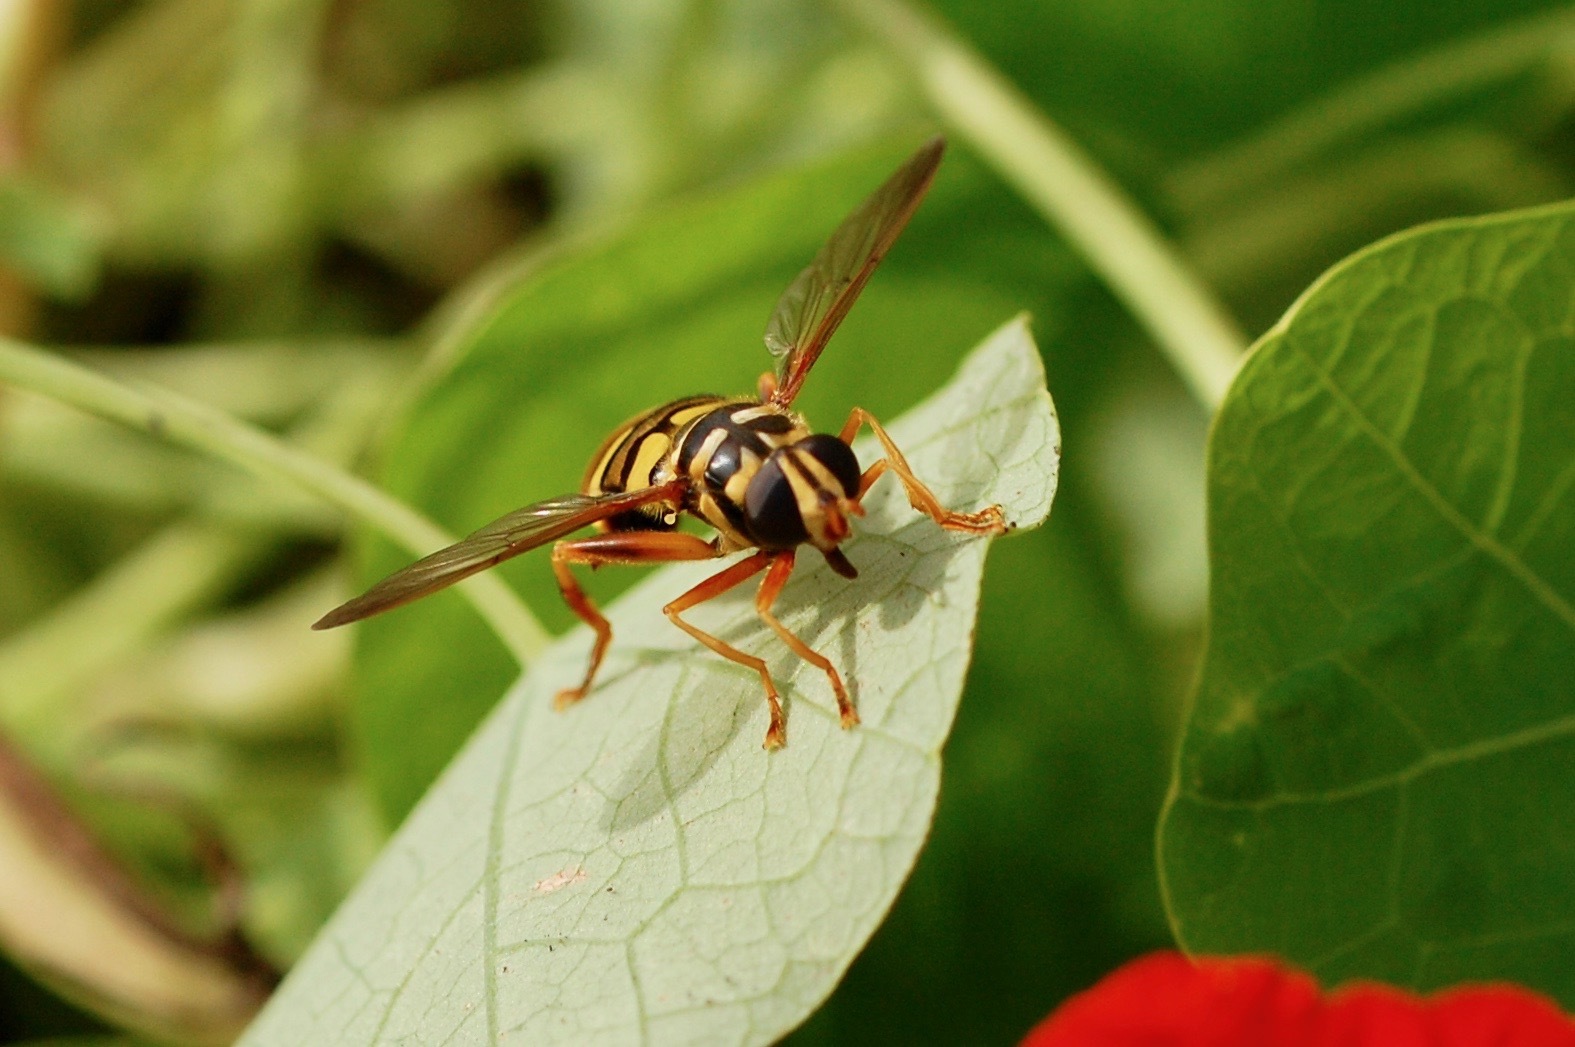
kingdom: Animalia
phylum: Arthropoda
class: Insecta
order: Diptera
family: Syrphidae
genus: Milesia
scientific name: Milesia virginiensis
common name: Virginia giant
